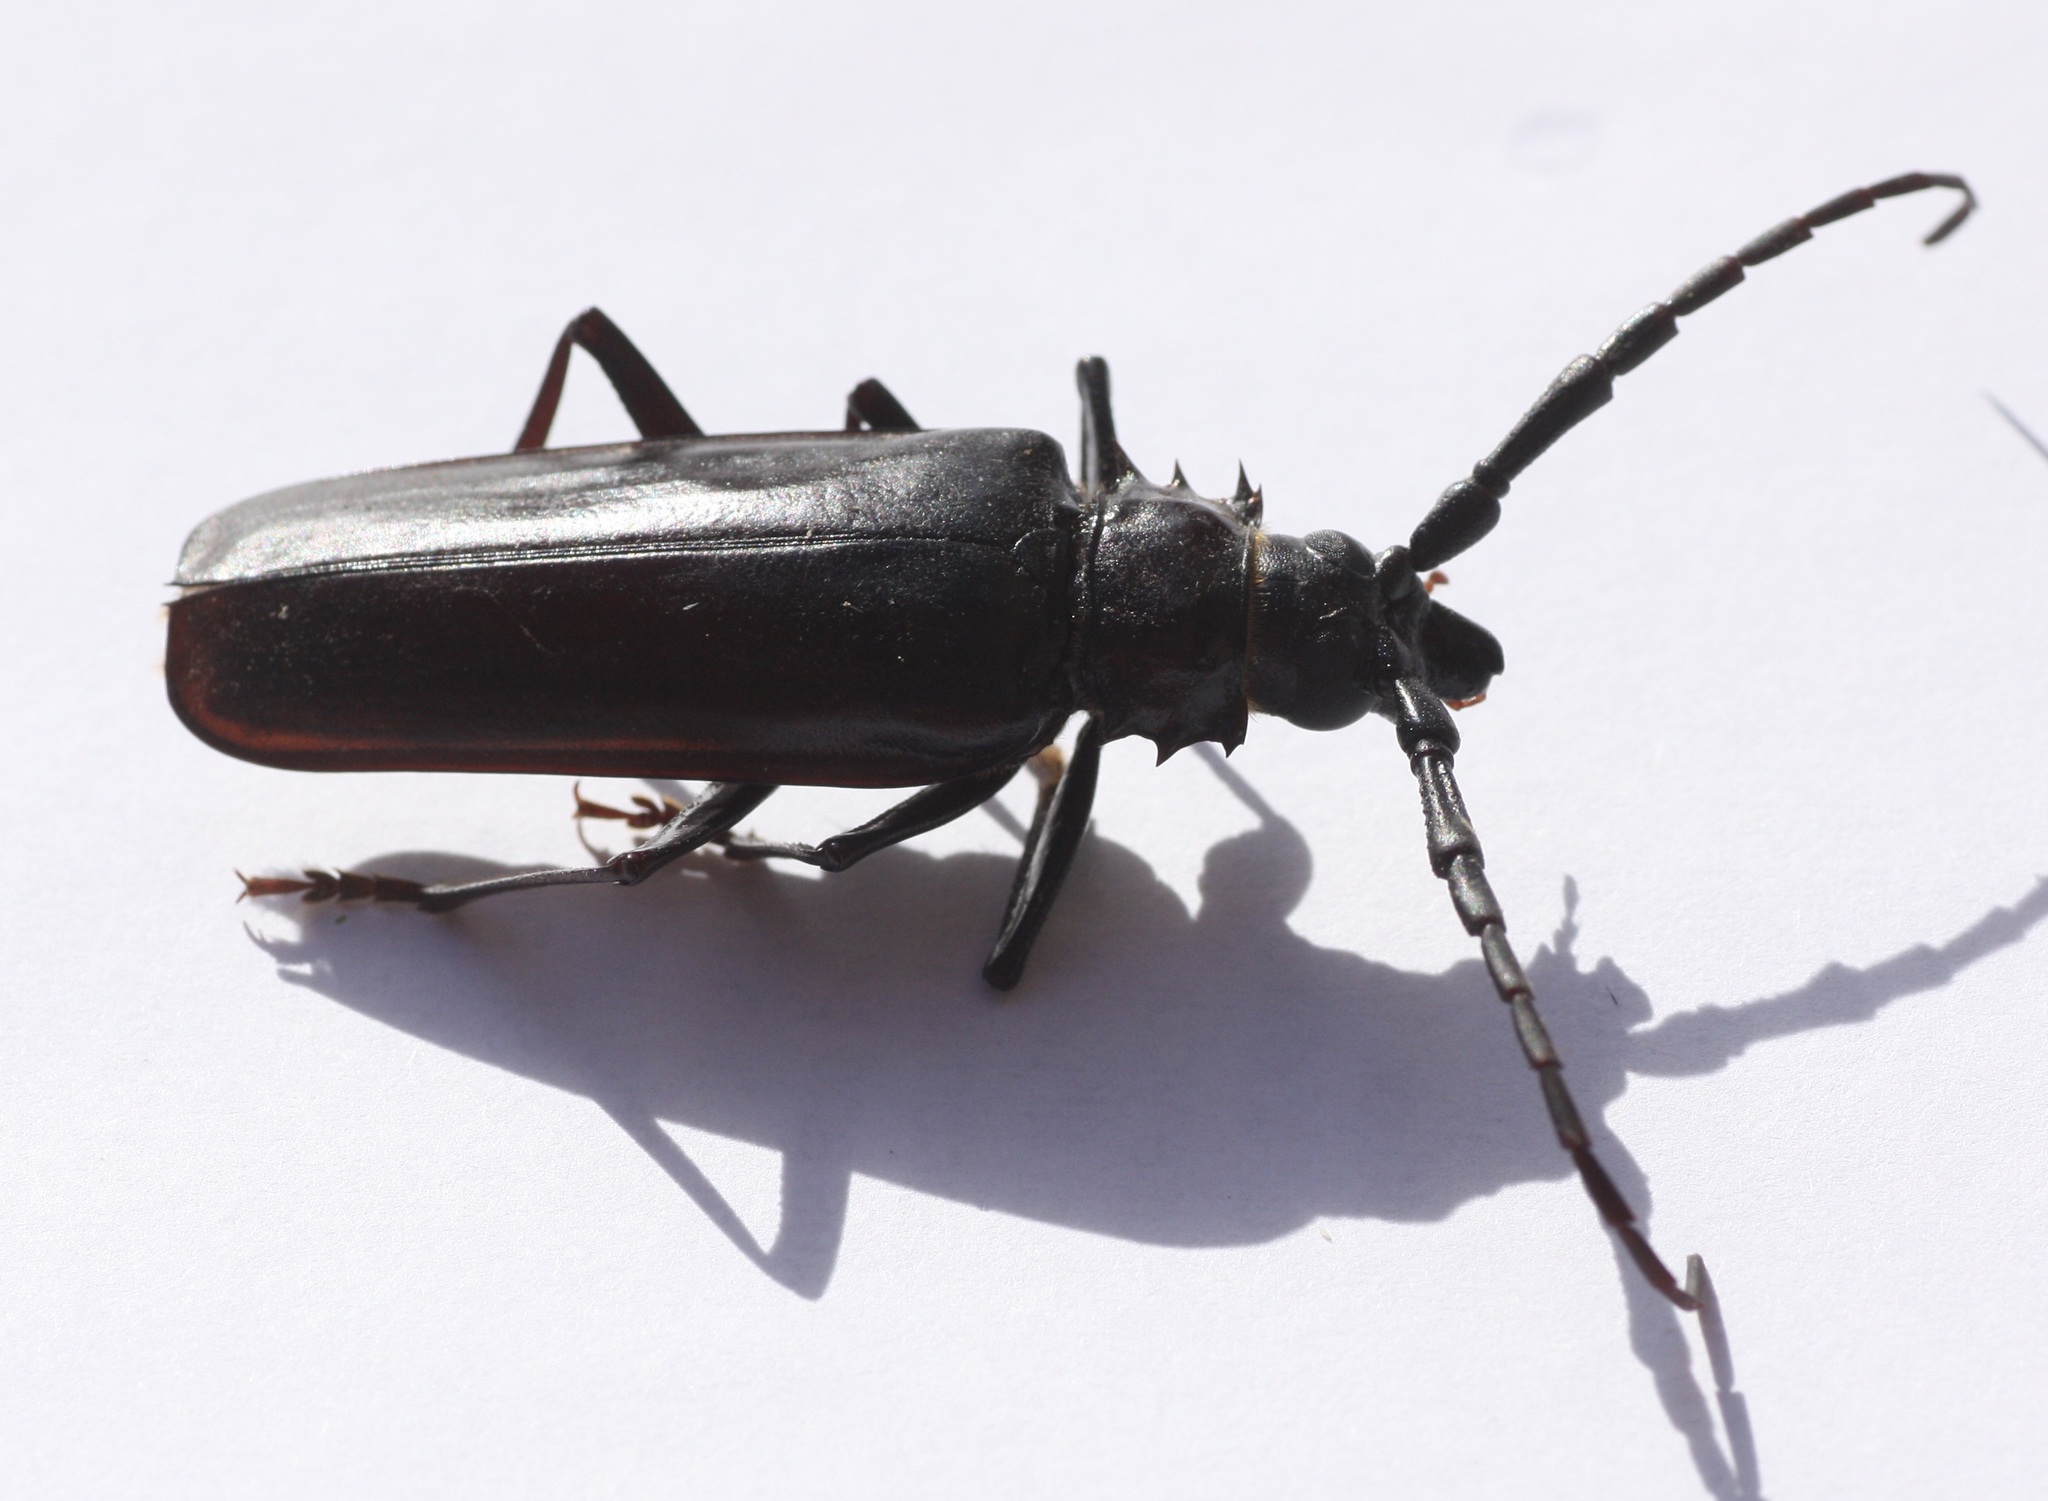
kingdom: Animalia
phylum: Arthropoda
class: Insecta
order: Coleoptera
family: Cerambycidae
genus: Derobrachus
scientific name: Derobrachus hovorei
